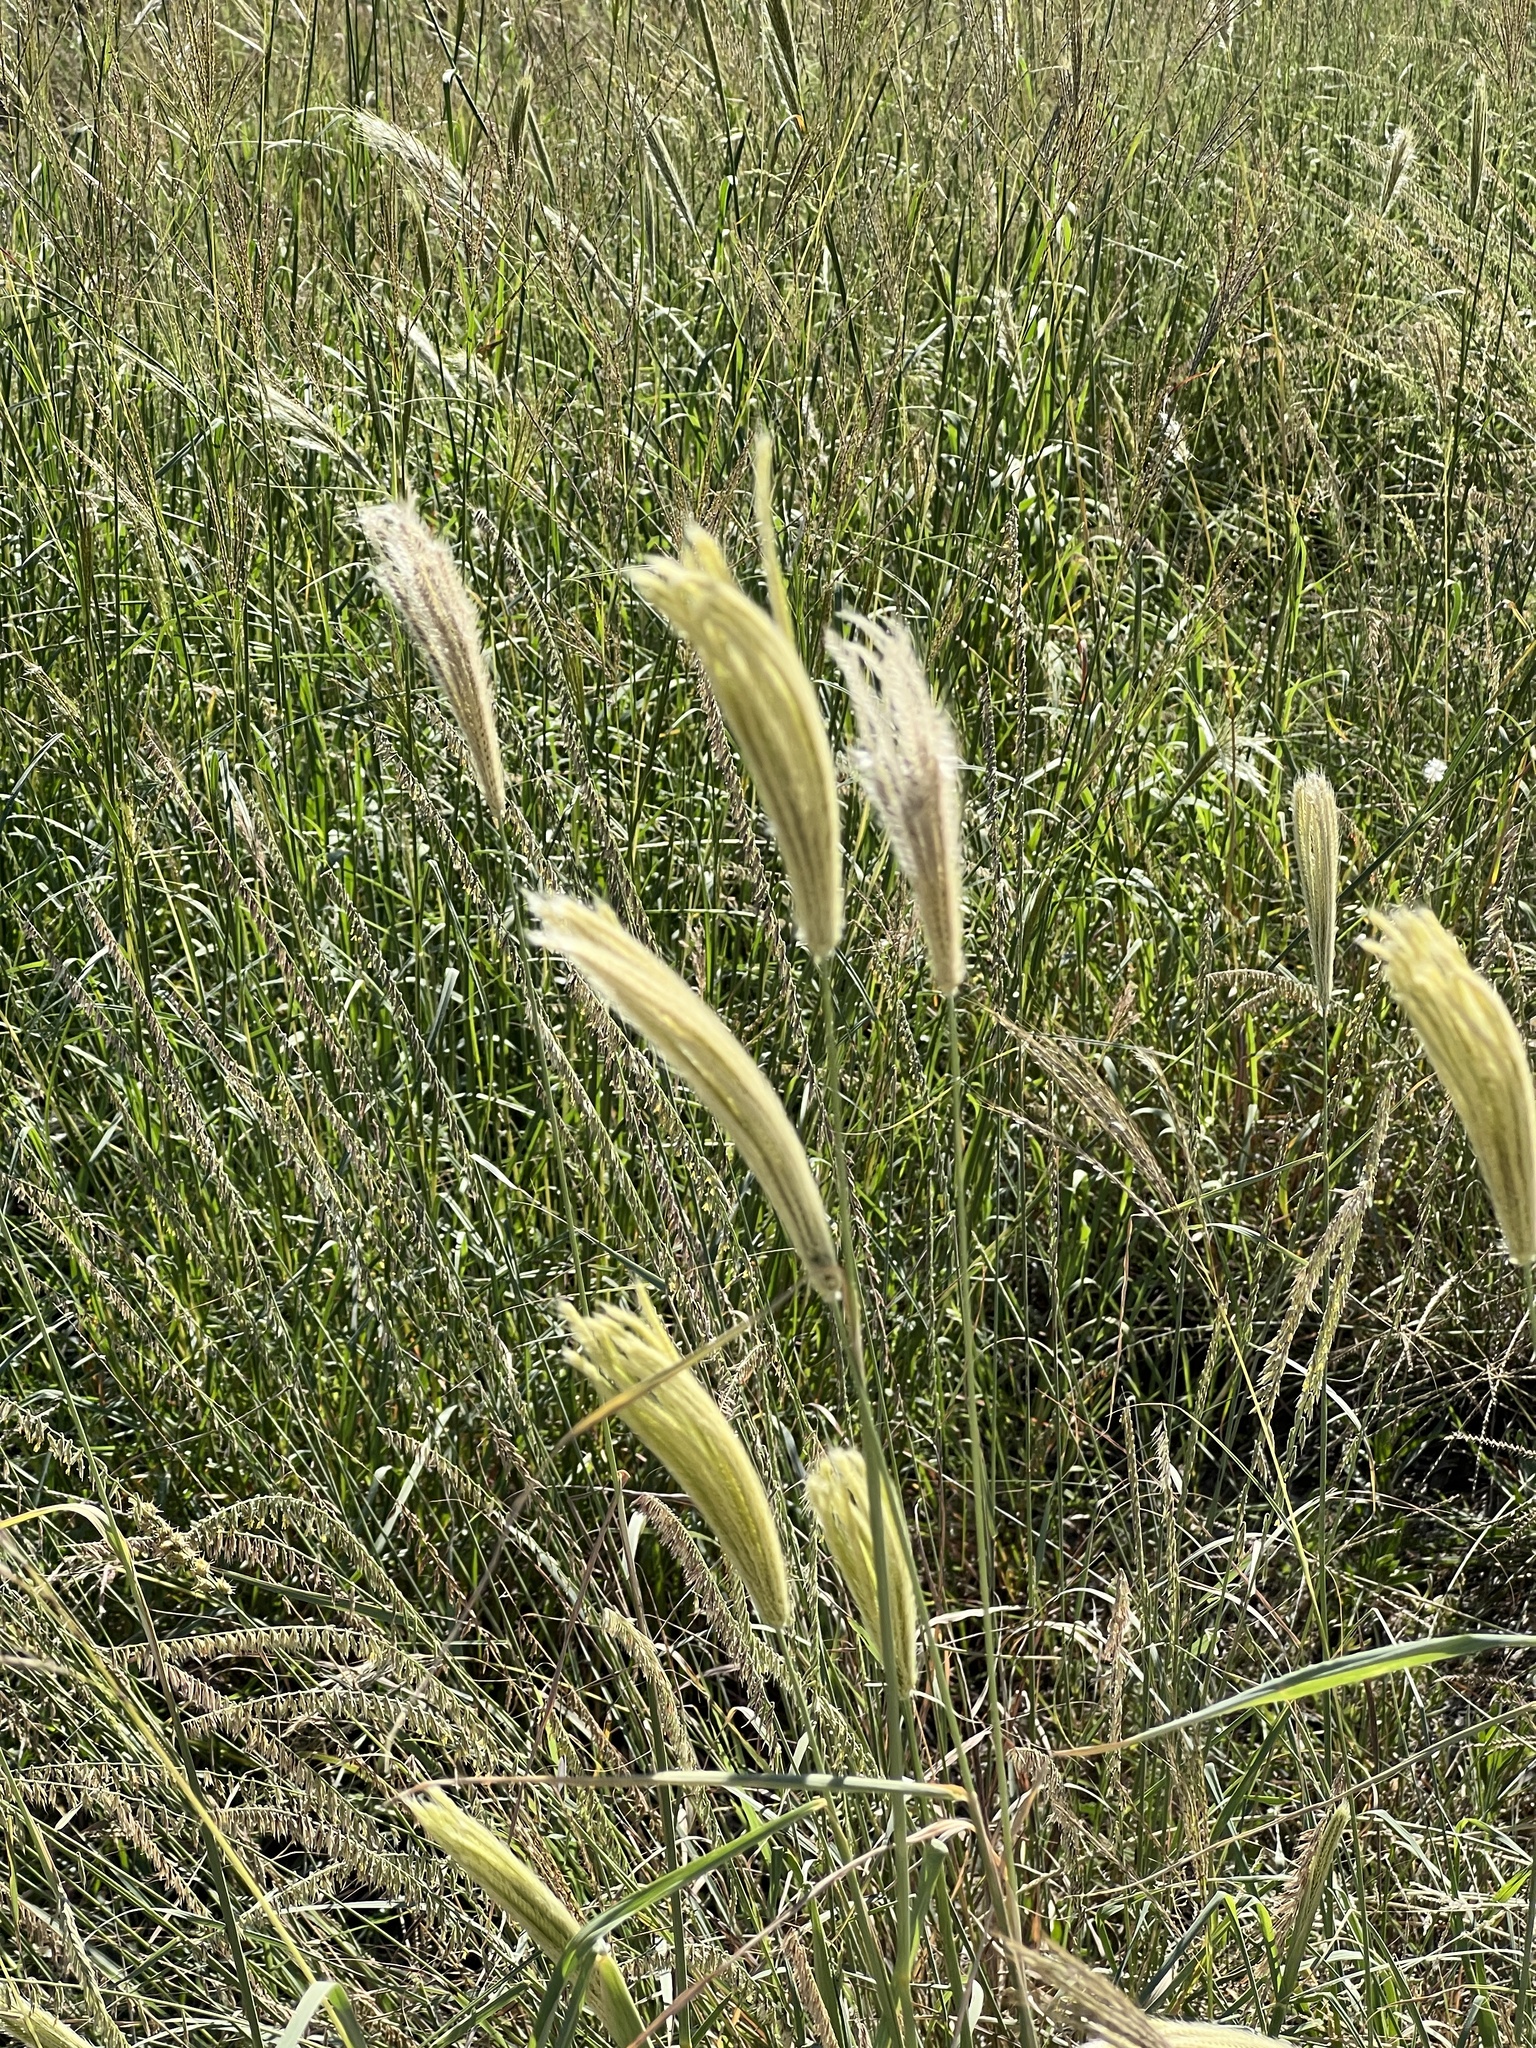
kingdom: Plantae
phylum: Tracheophyta
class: Liliopsida
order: Poales
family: Poaceae
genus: Chloris
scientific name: Chloris virgata
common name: Feathery rhodes-grass
